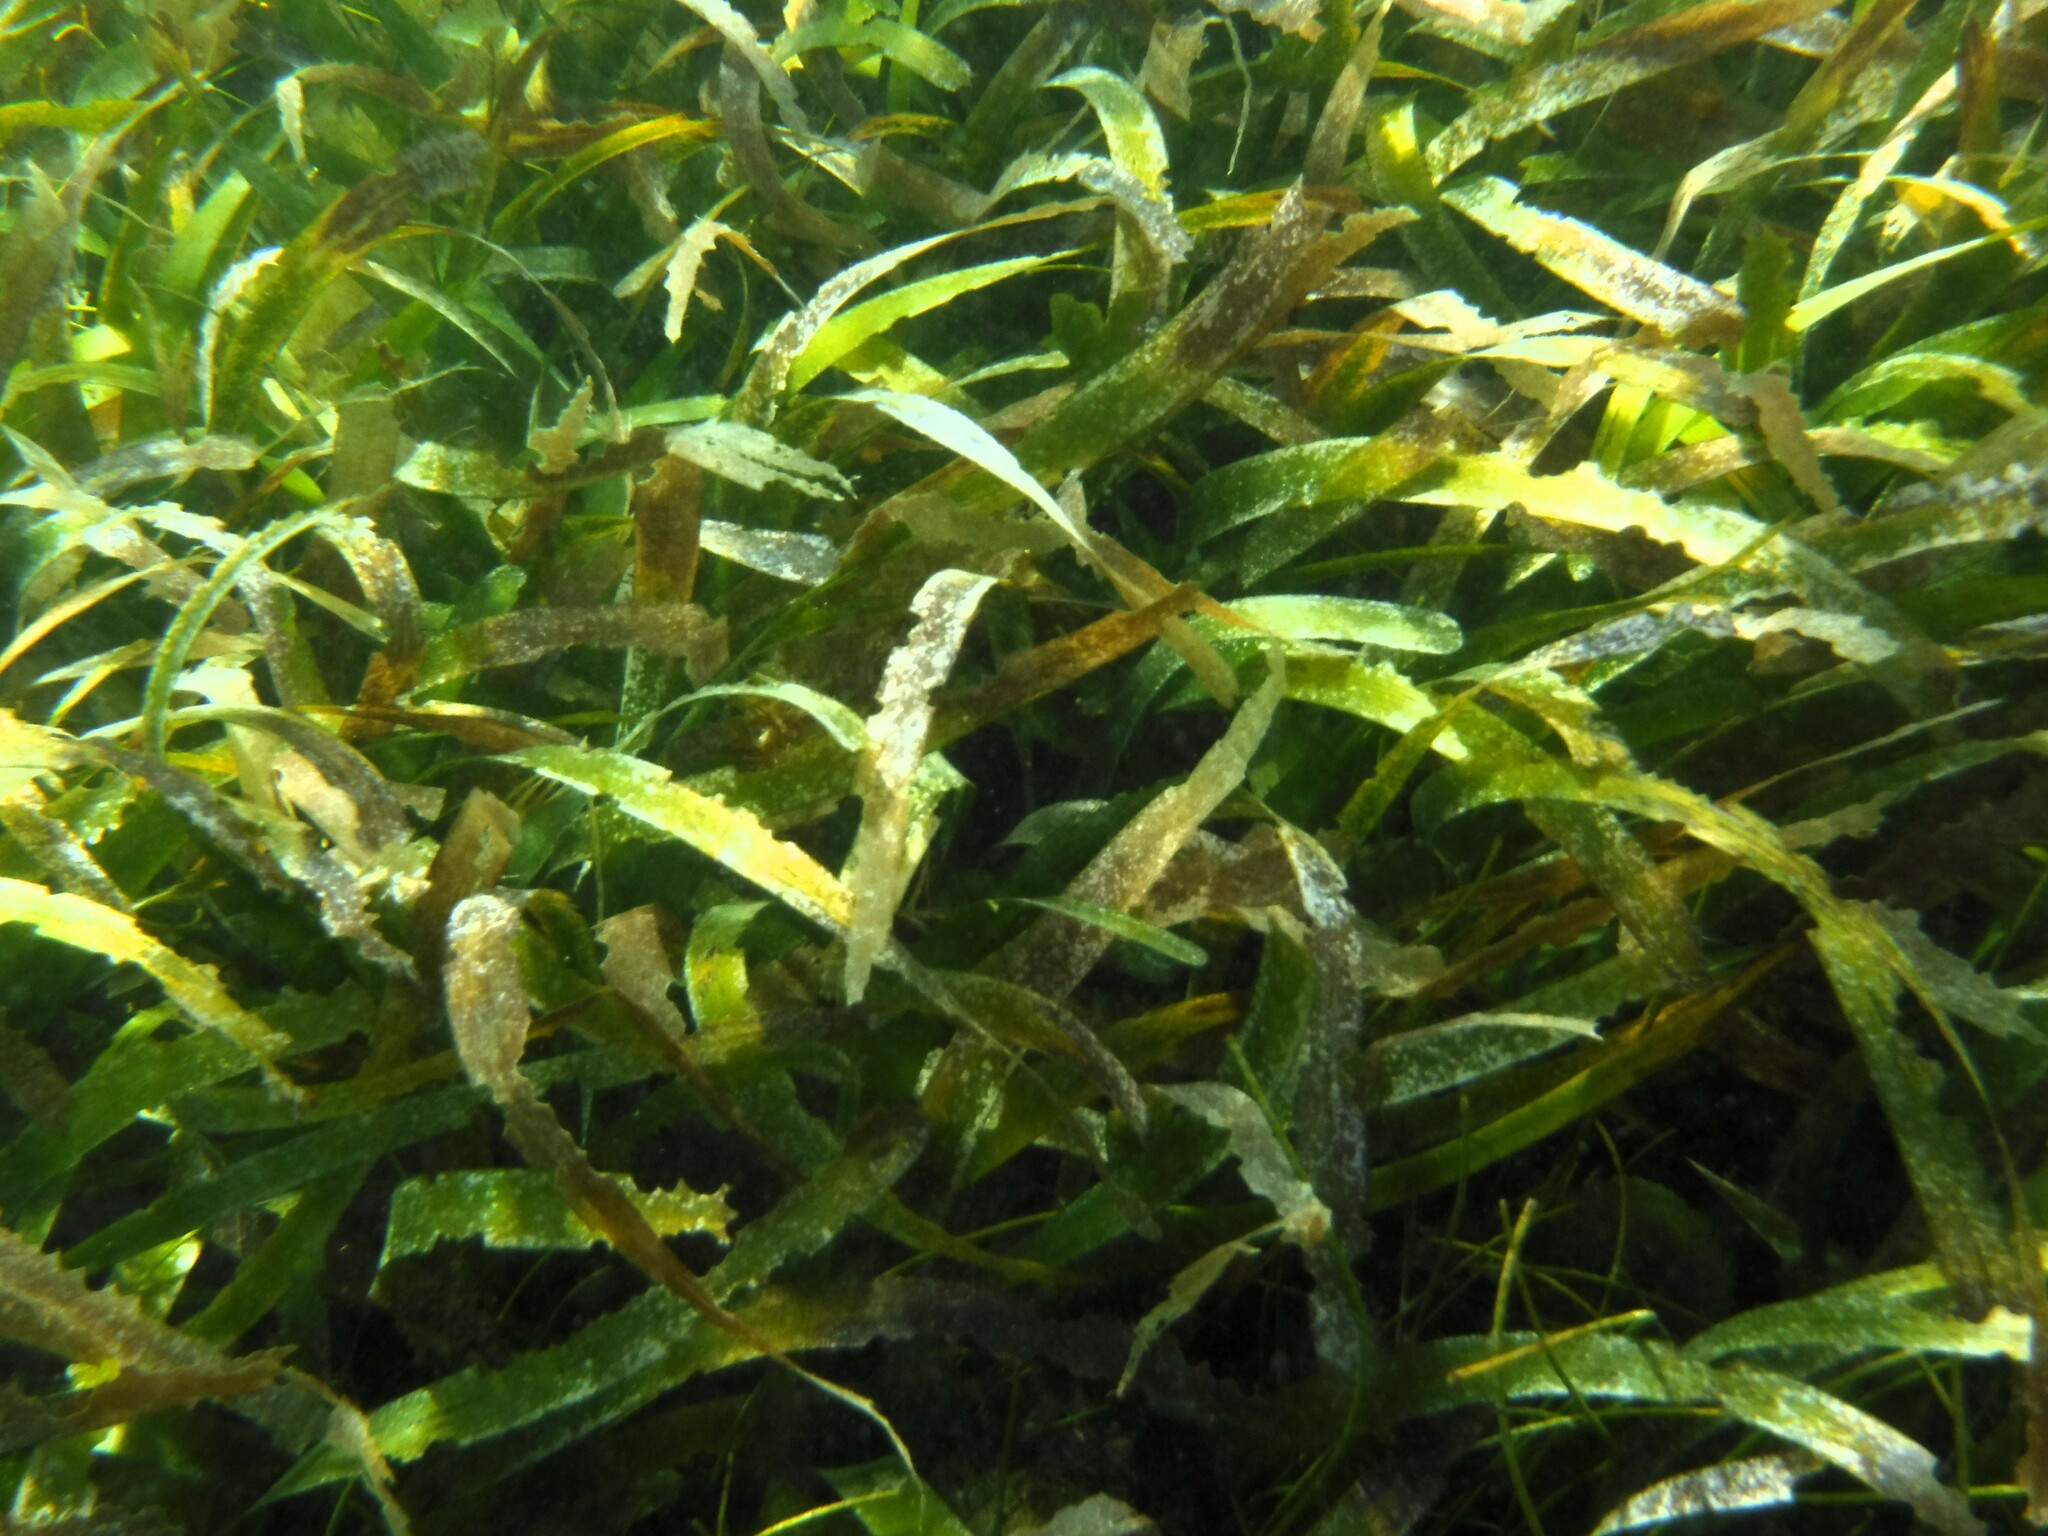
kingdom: Plantae
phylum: Tracheophyta
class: Liliopsida
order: Alismatales
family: Hydrocharitaceae
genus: Thalassia
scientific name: Thalassia testudinum
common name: Species code: tt
